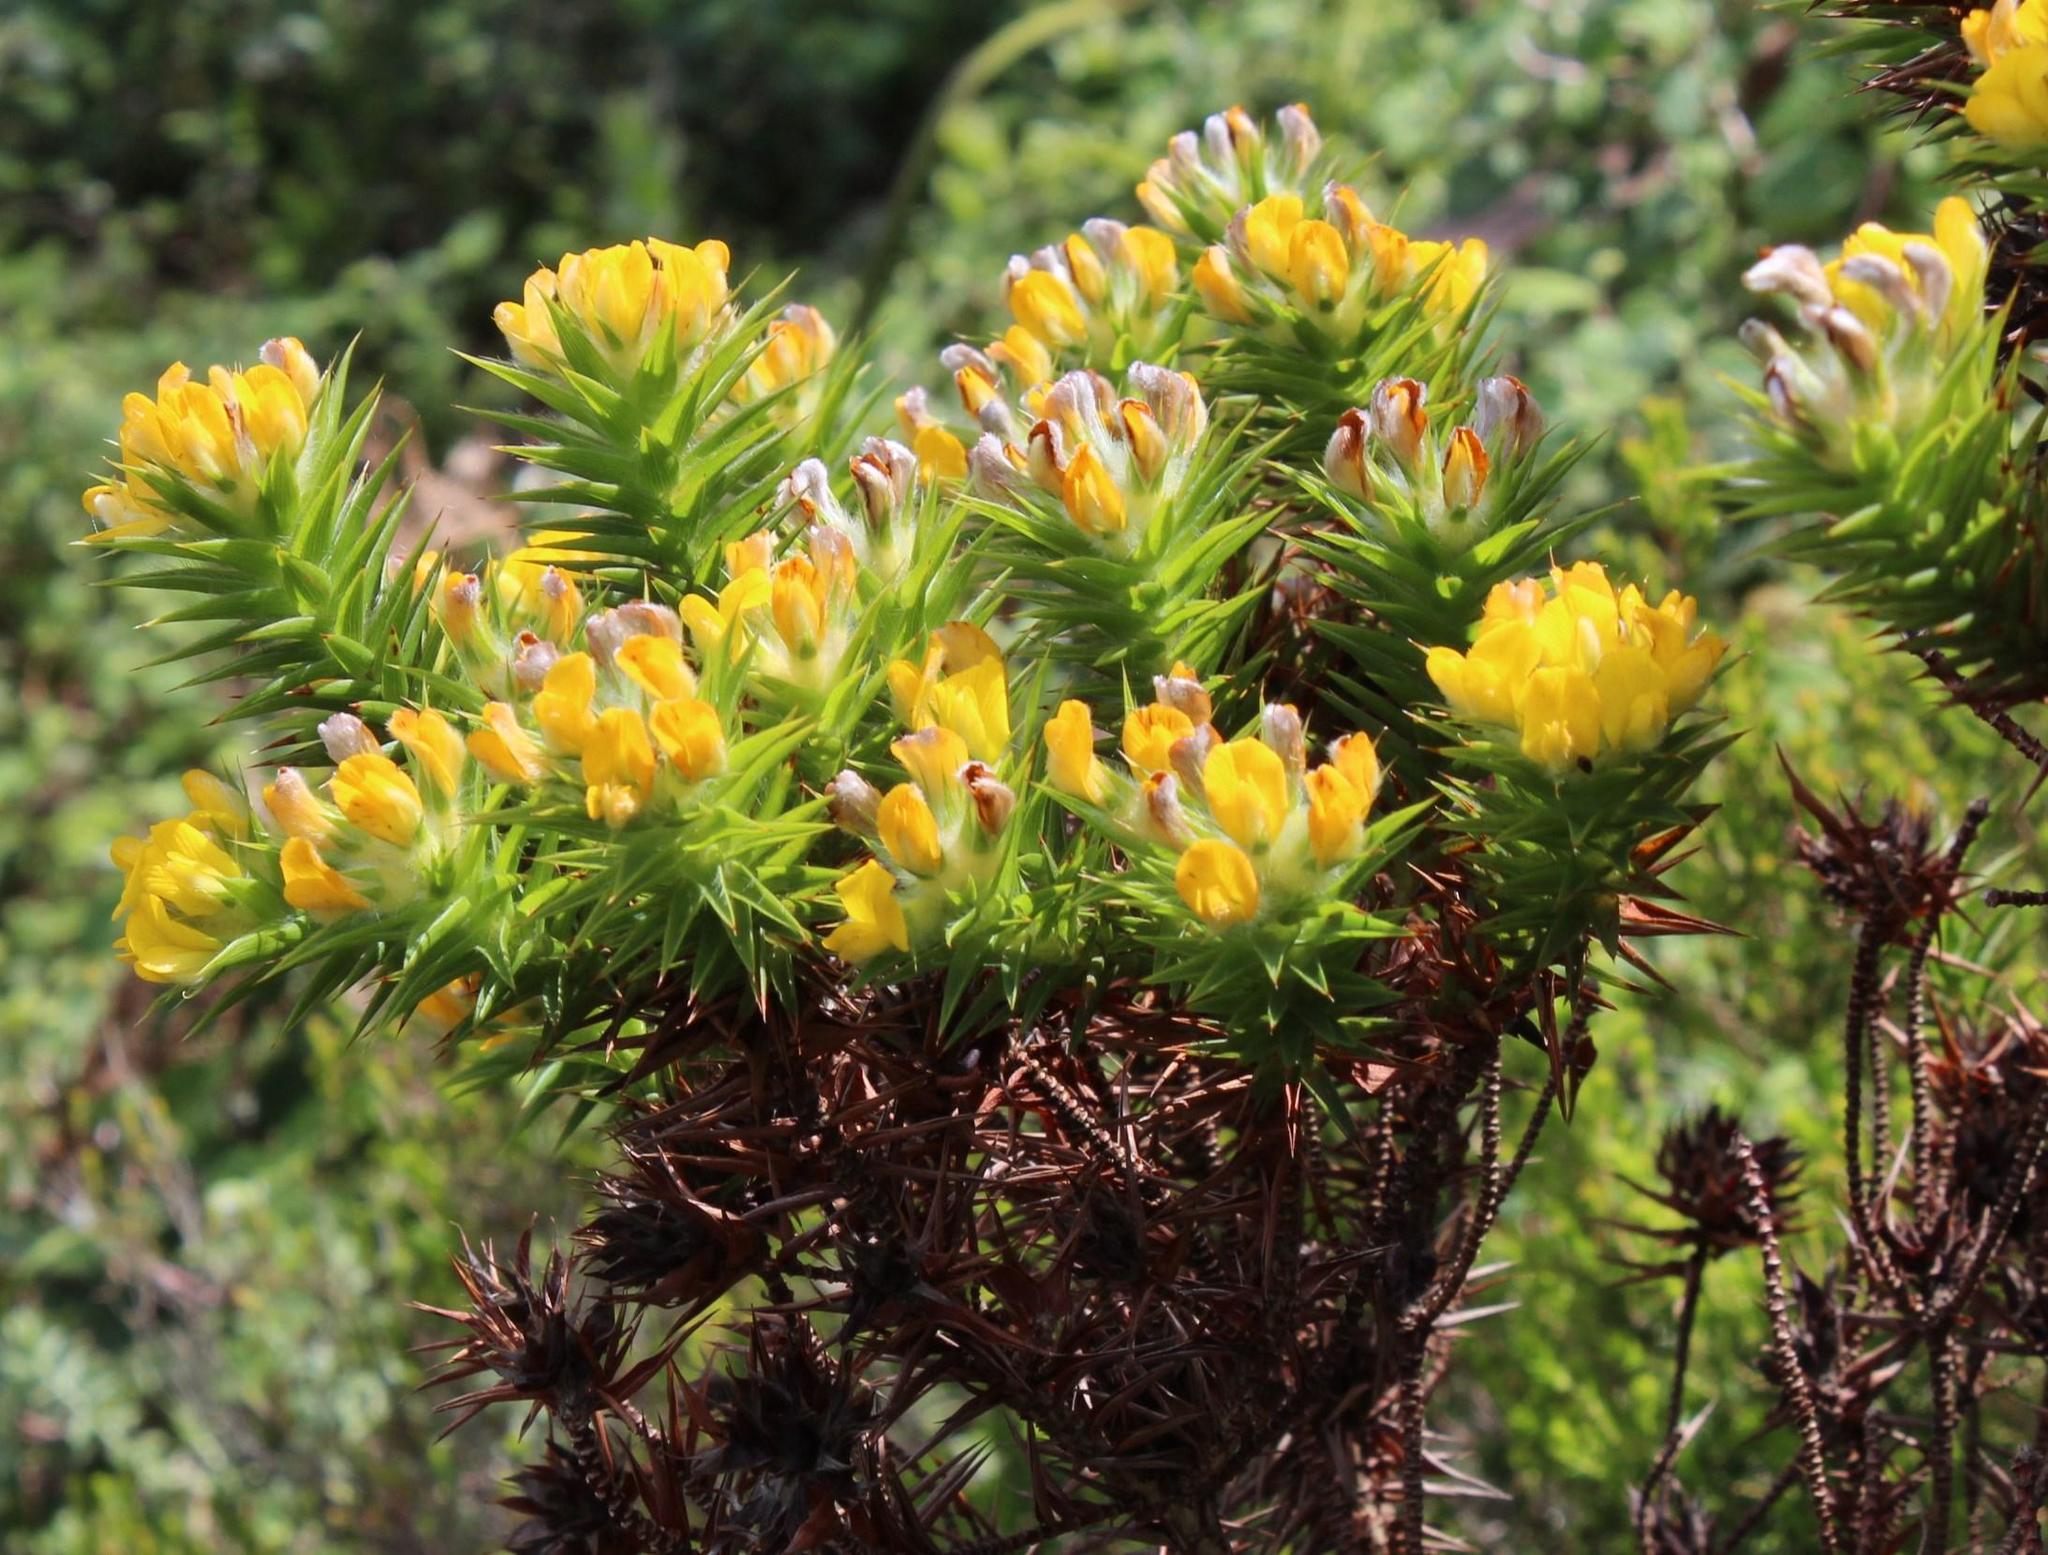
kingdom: Plantae
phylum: Tracheophyta
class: Magnoliopsida
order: Fabales
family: Fabaceae
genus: Aspalathus
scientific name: Aspalathus barbata
